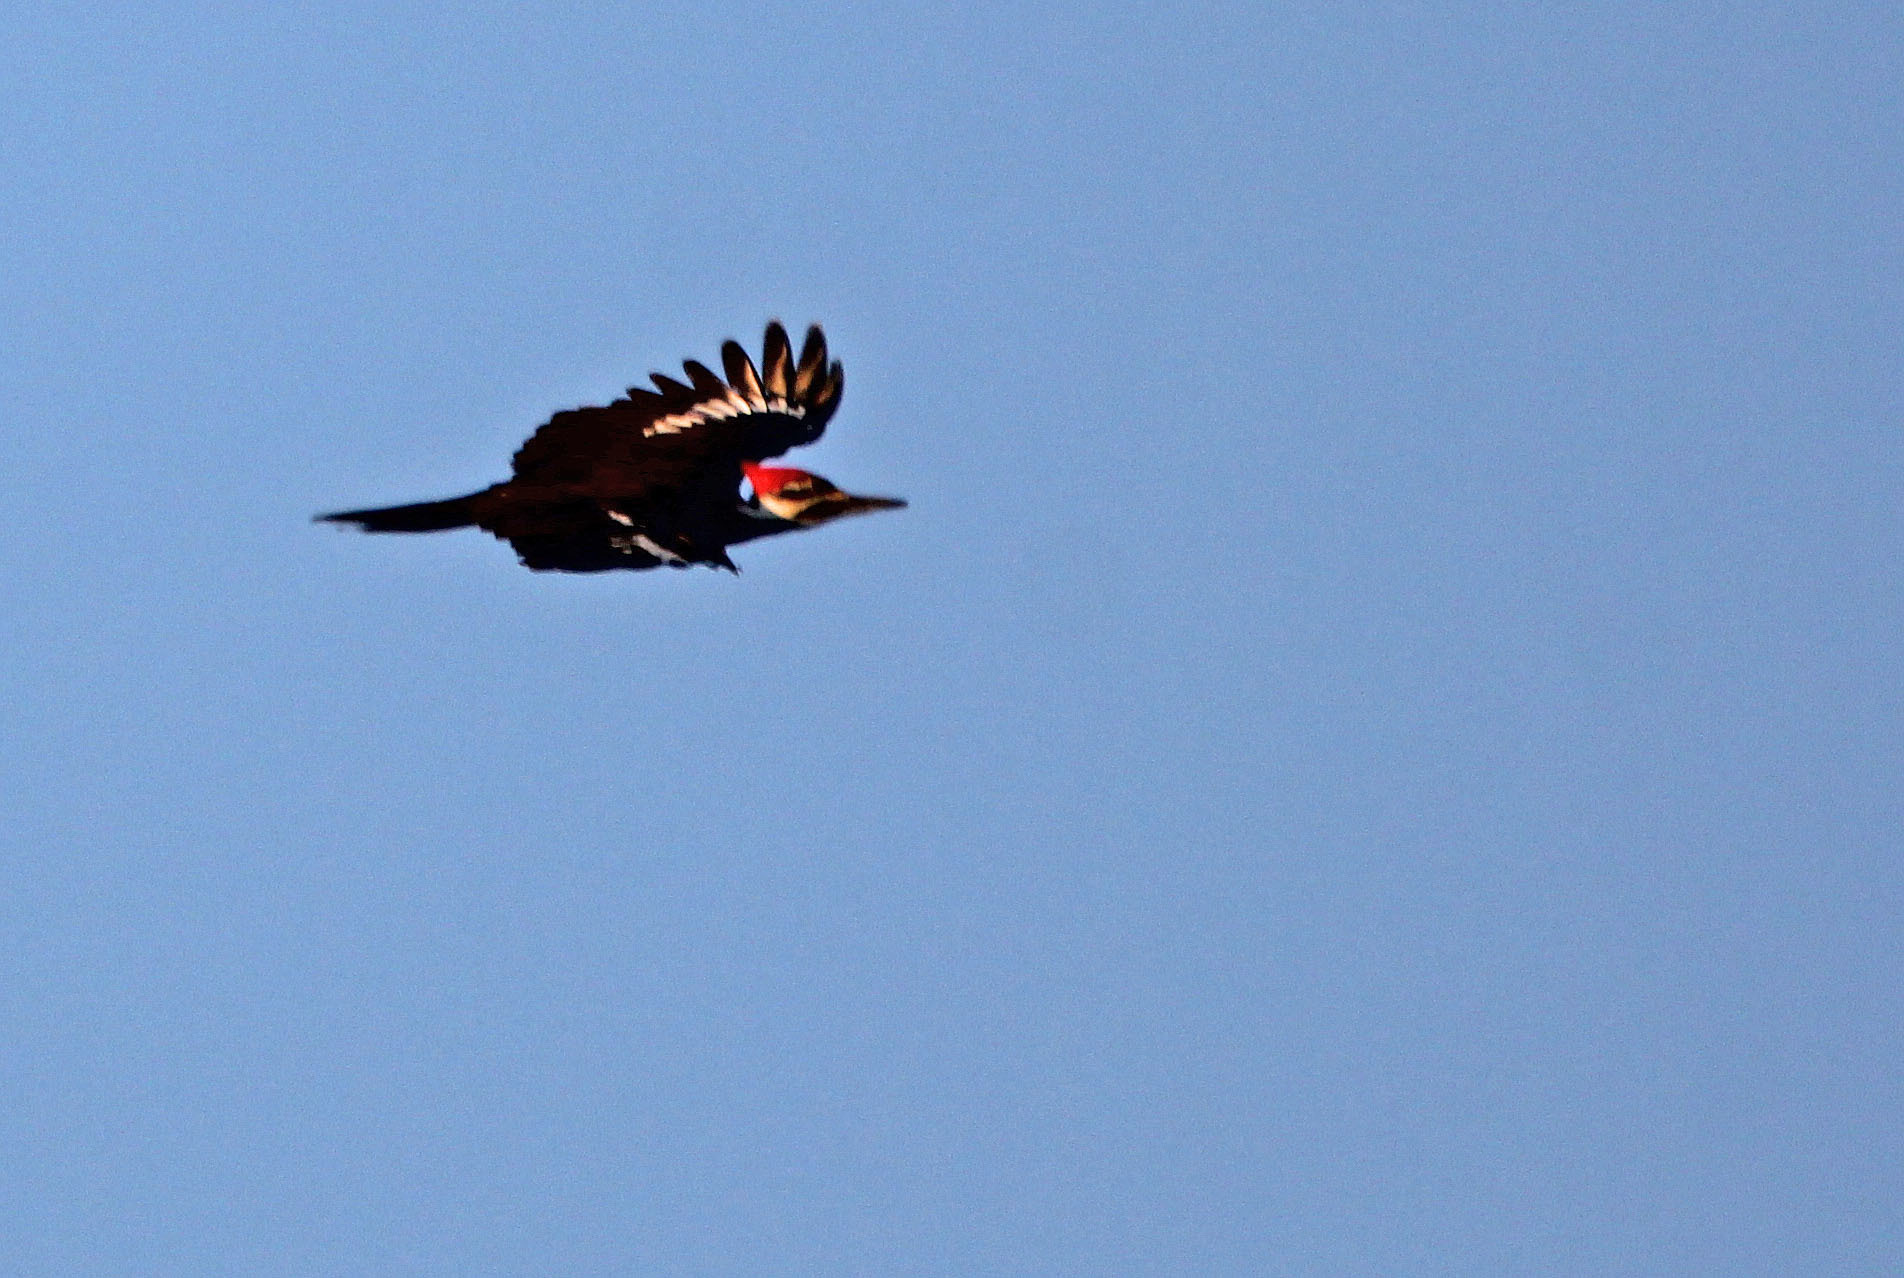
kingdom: Animalia
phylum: Chordata
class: Aves
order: Piciformes
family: Picidae
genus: Dryocopus
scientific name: Dryocopus pileatus
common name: Pileated woodpecker
